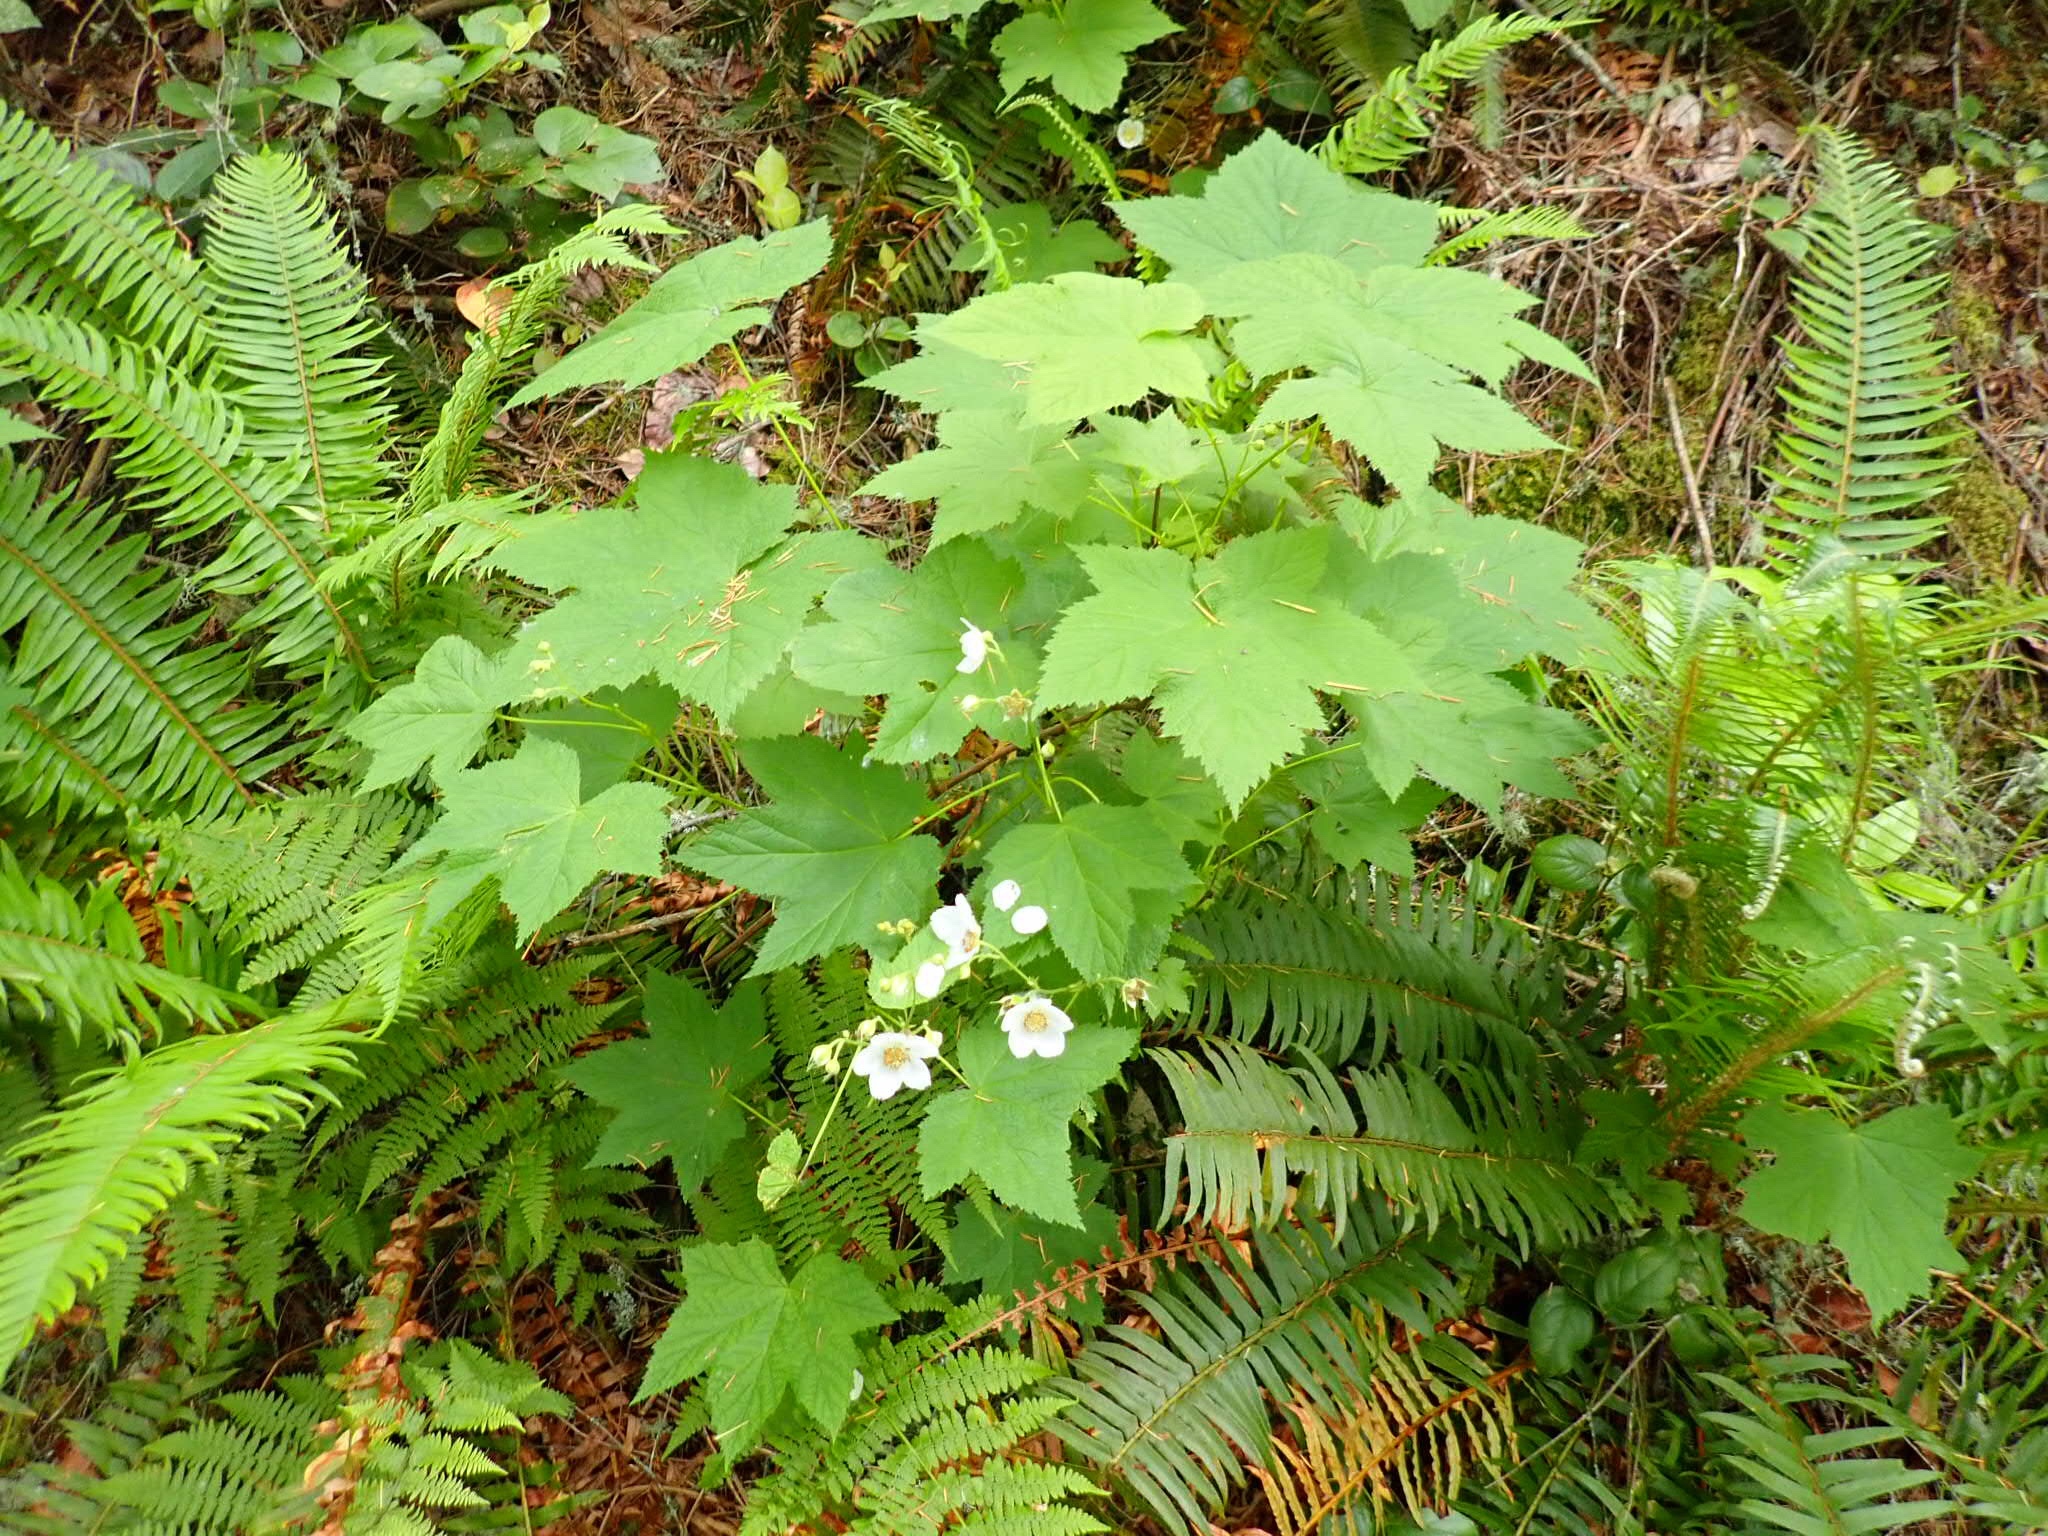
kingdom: Plantae
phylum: Tracheophyta
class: Magnoliopsida
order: Rosales
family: Rosaceae
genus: Rubus
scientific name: Rubus parviflorus
